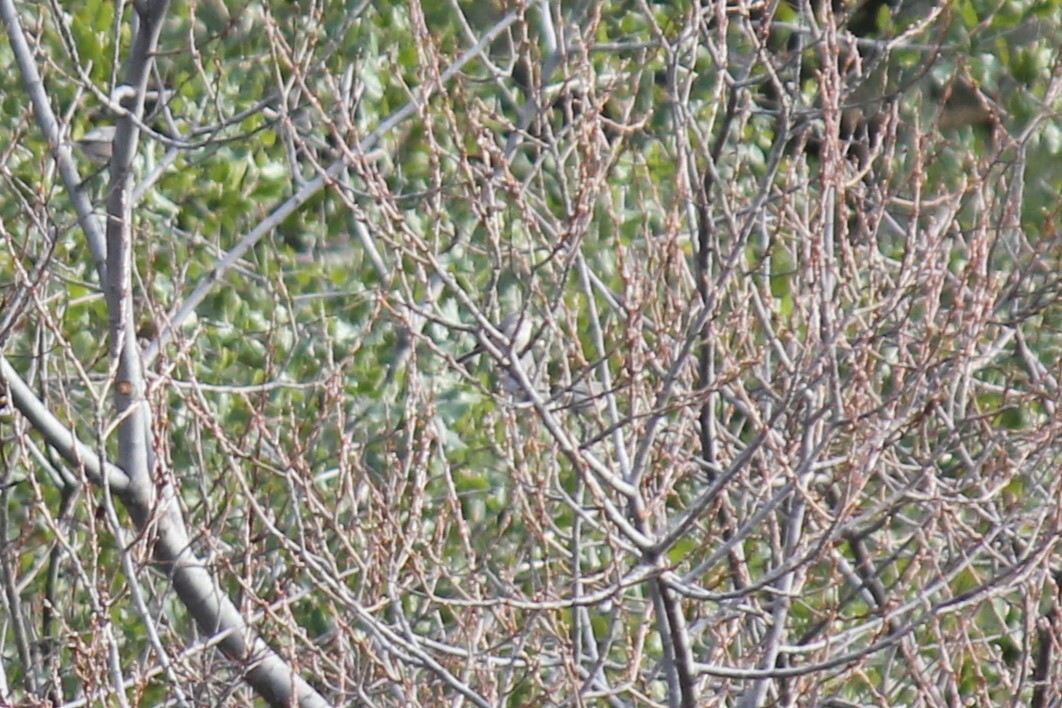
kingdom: Animalia
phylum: Chordata
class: Aves
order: Passeriformes
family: Aegithalidae
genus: Psaltriparus
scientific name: Psaltriparus minimus
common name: American bushtit
